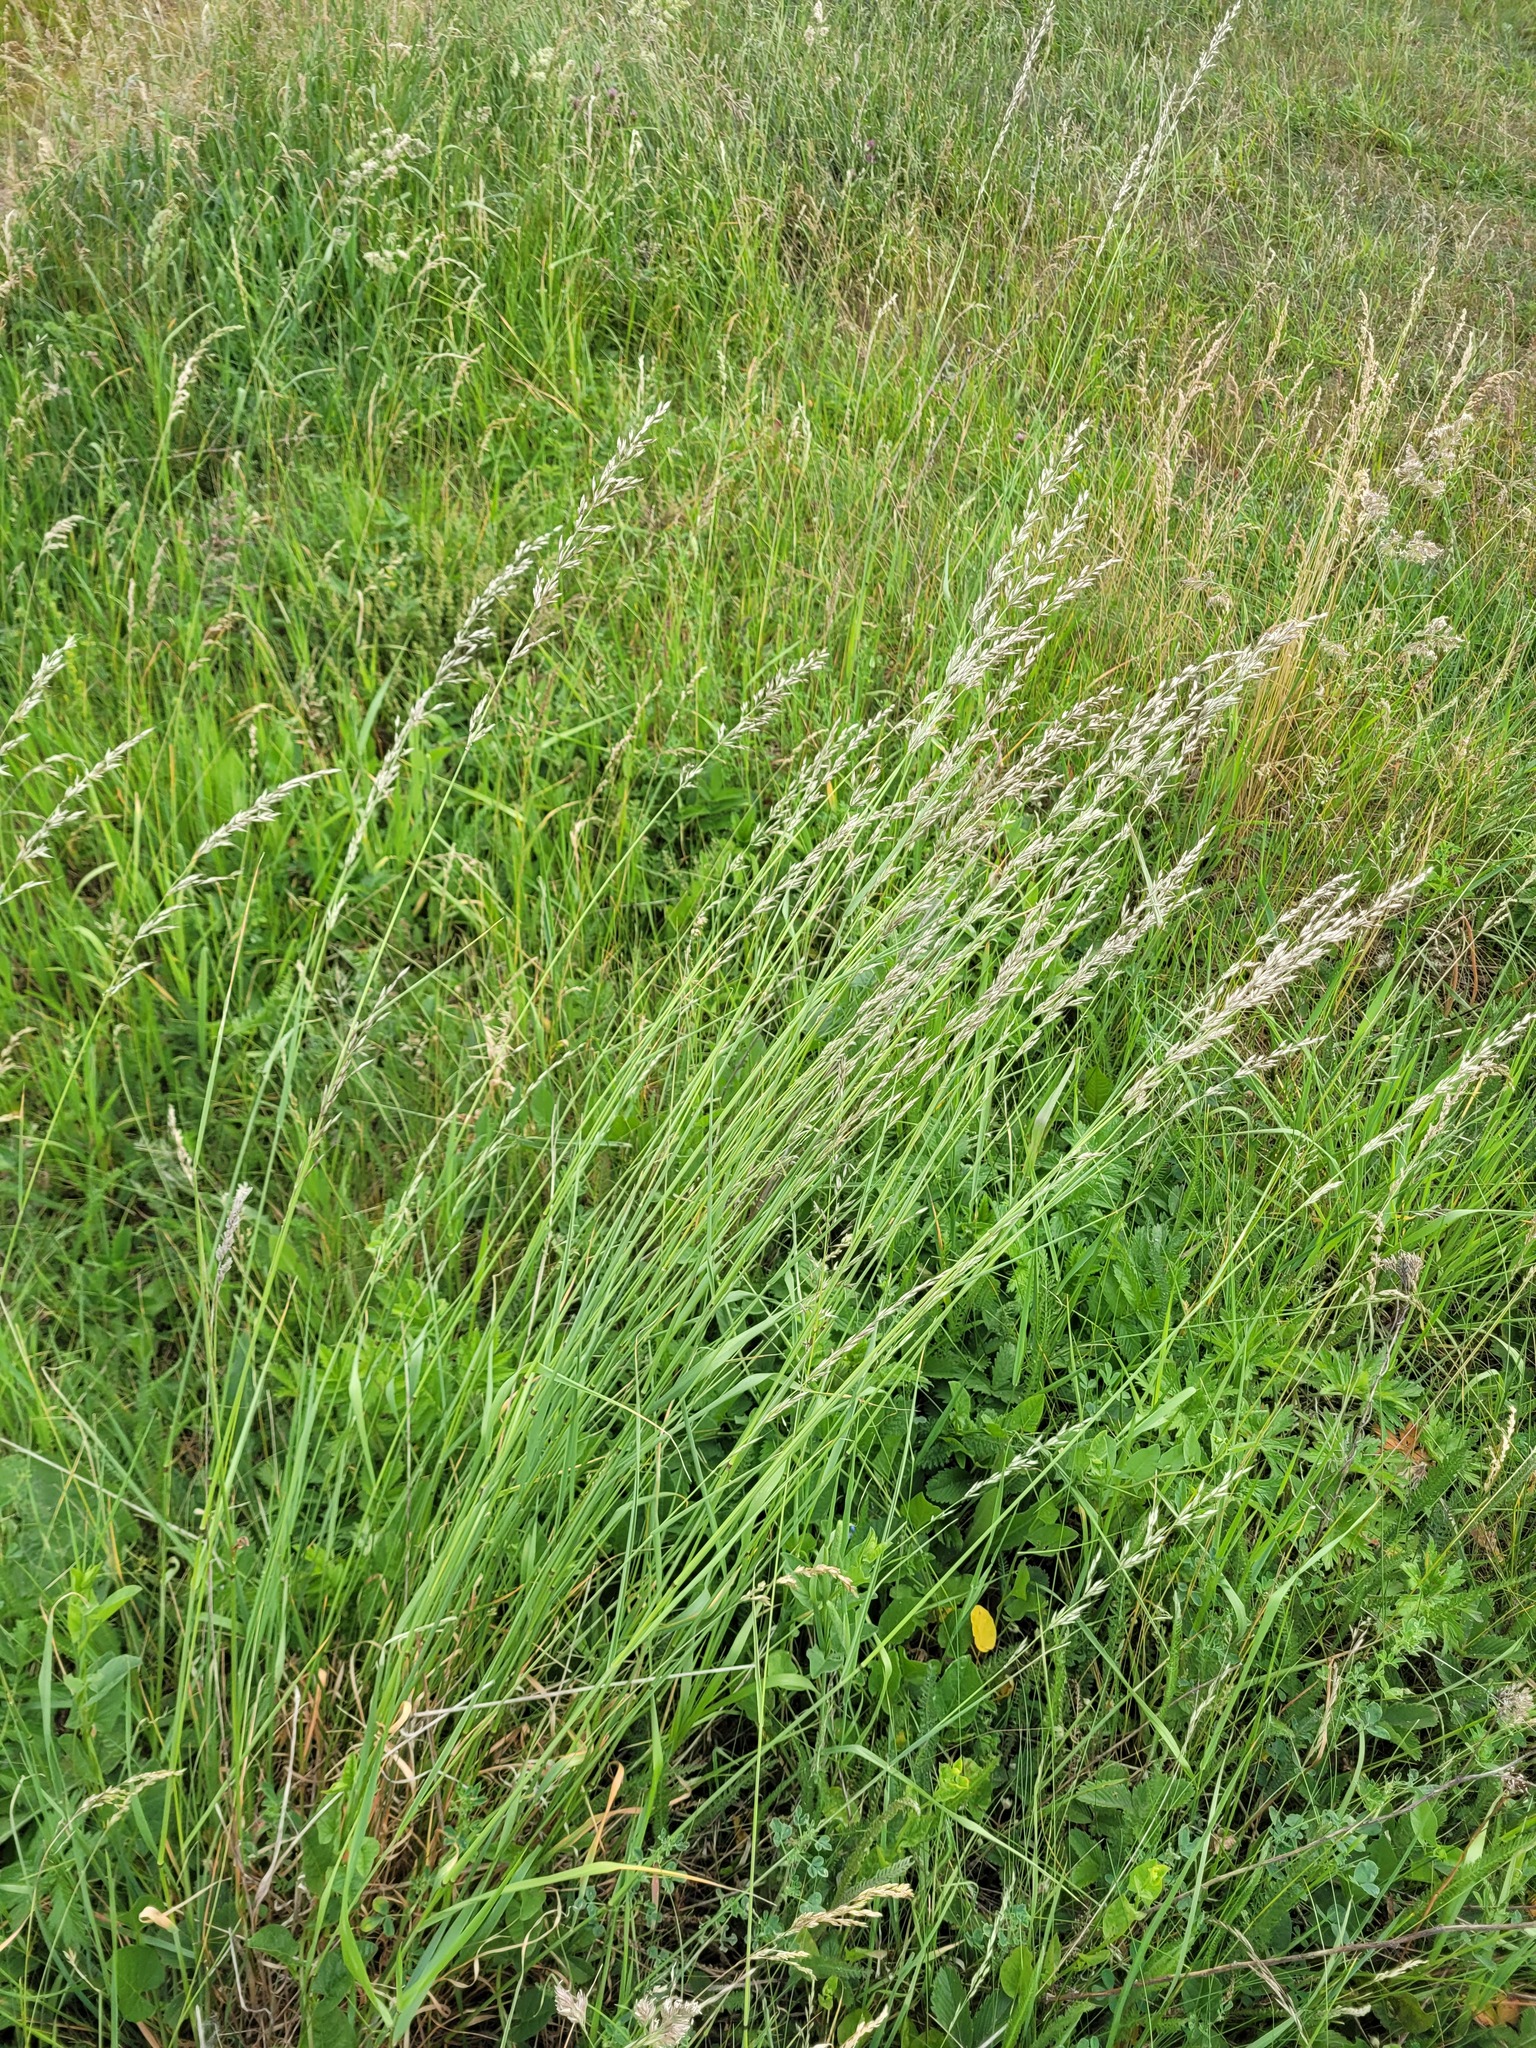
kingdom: Plantae
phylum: Tracheophyta
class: Liliopsida
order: Poales
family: Poaceae
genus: Arrhenatherum
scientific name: Arrhenatherum elatius
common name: Tall oatgrass
